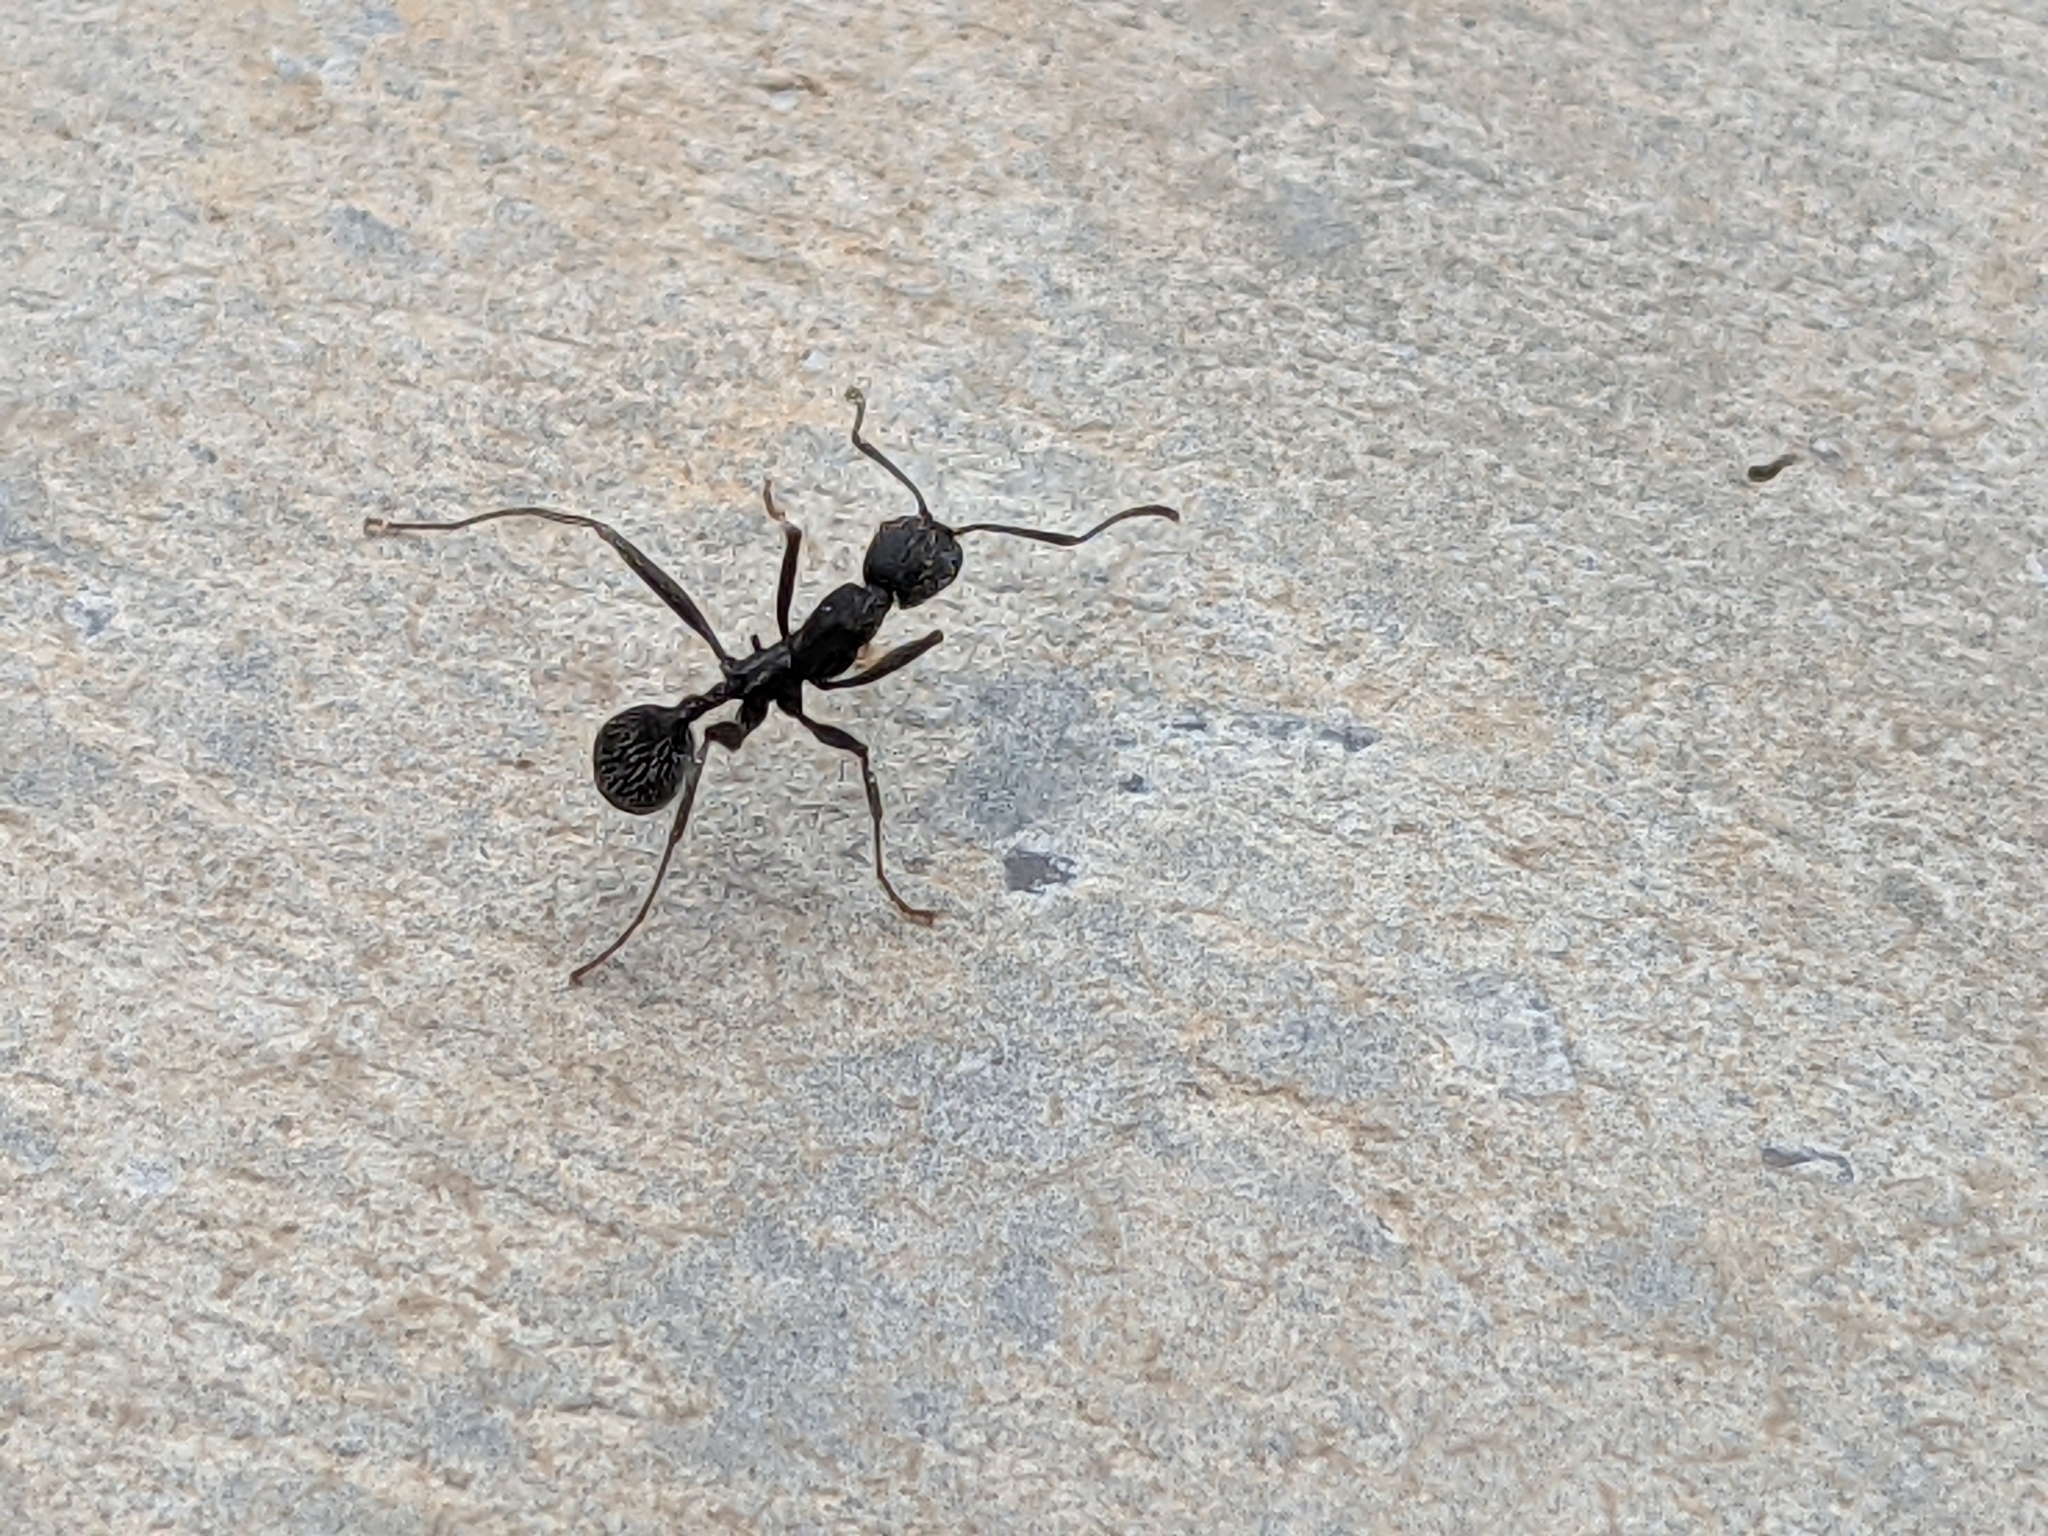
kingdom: Animalia
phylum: Arthropoda
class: Insecta
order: Hymenoptera
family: Formicidae
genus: Aphaenogaster
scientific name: Aphaenogaster senilis
